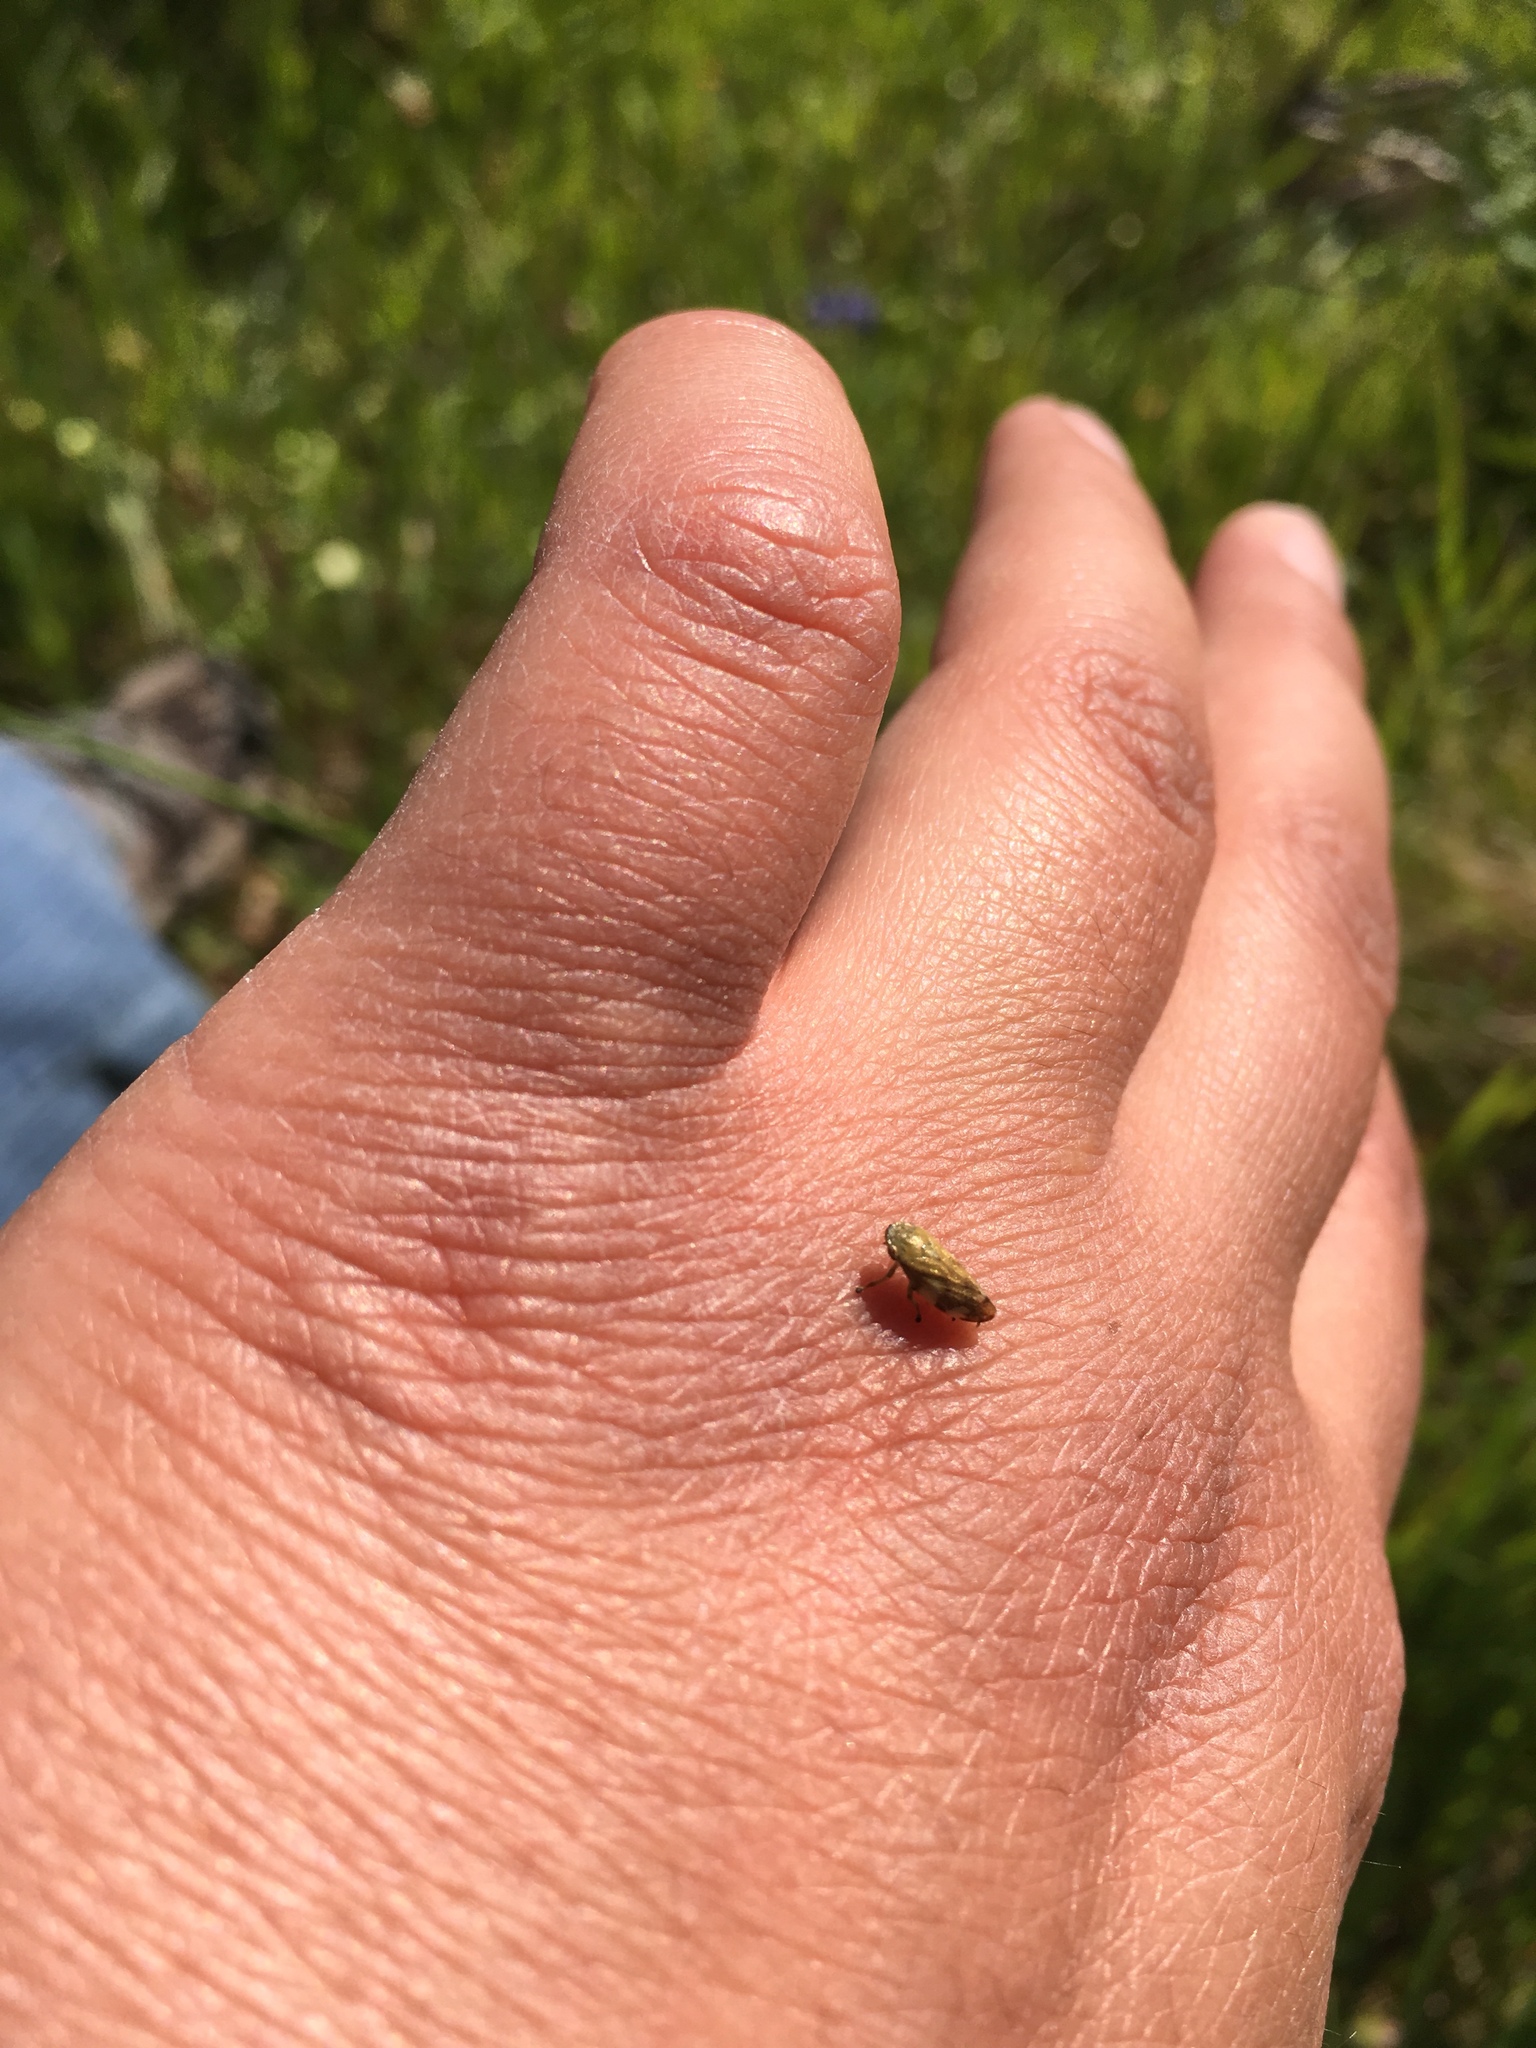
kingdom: Animalia
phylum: Arthropoda
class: Insecta
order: Hemiptera
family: Aphrophoridae
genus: Philaenus
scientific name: Philaenus spumarius
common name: Meadow spittlebug
